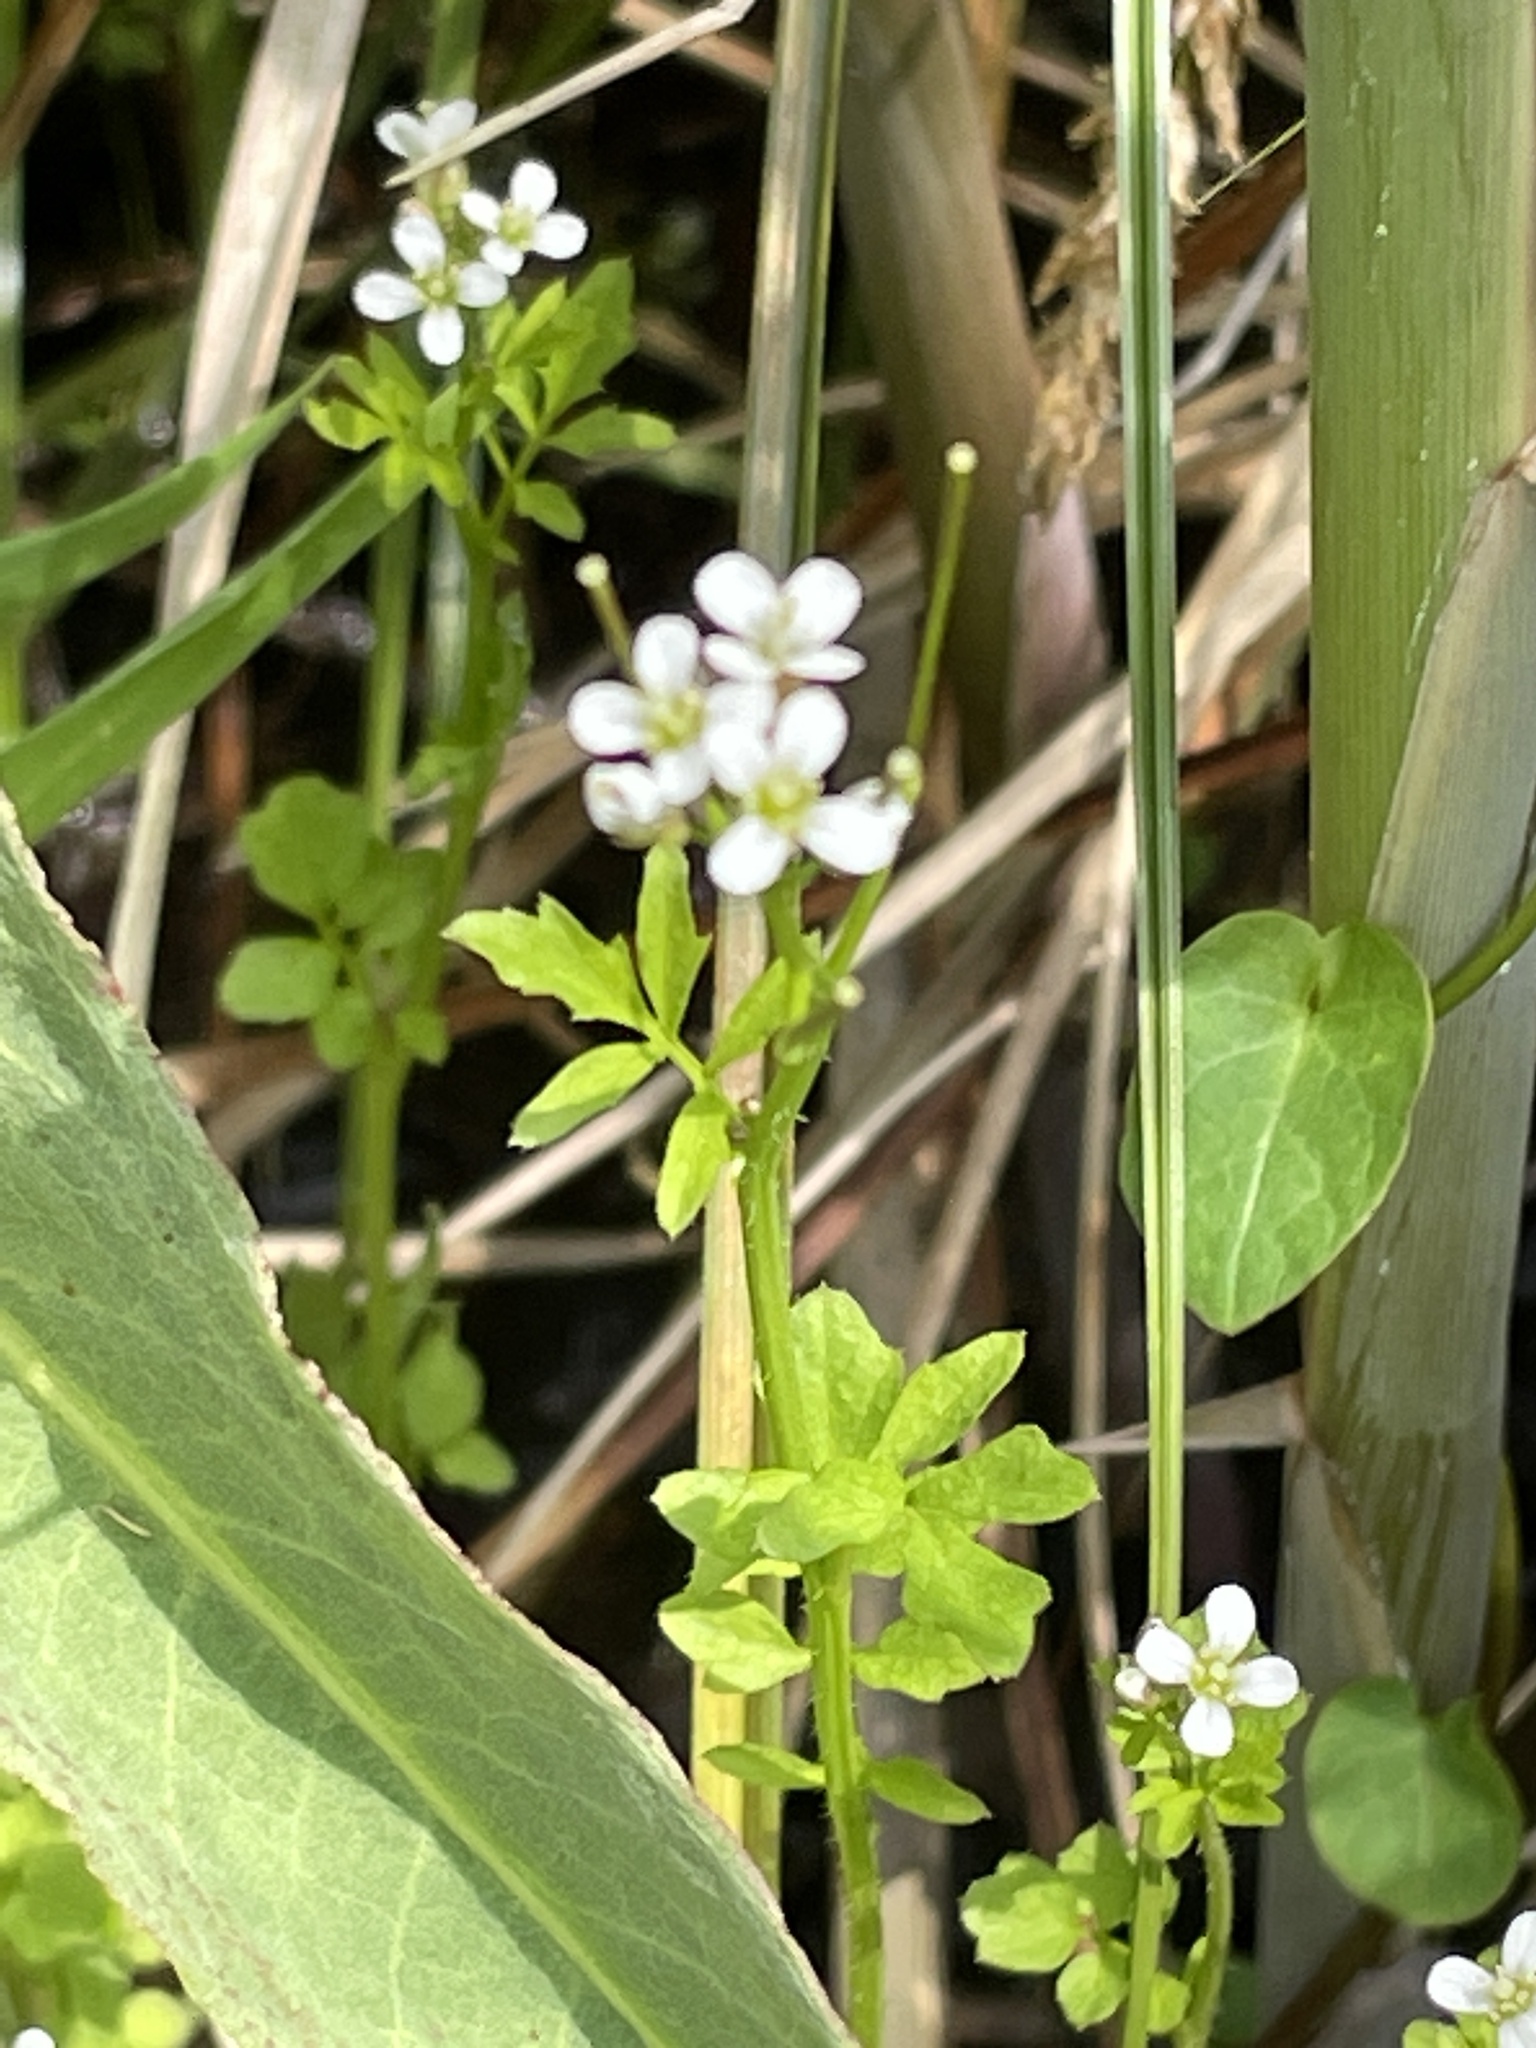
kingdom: Plantae
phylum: Tracheophyta
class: Magnoliopsida
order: Brassicales
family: Brassicaceae
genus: Cardamine
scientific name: Cardamine pratensis
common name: Cuckoo flower
